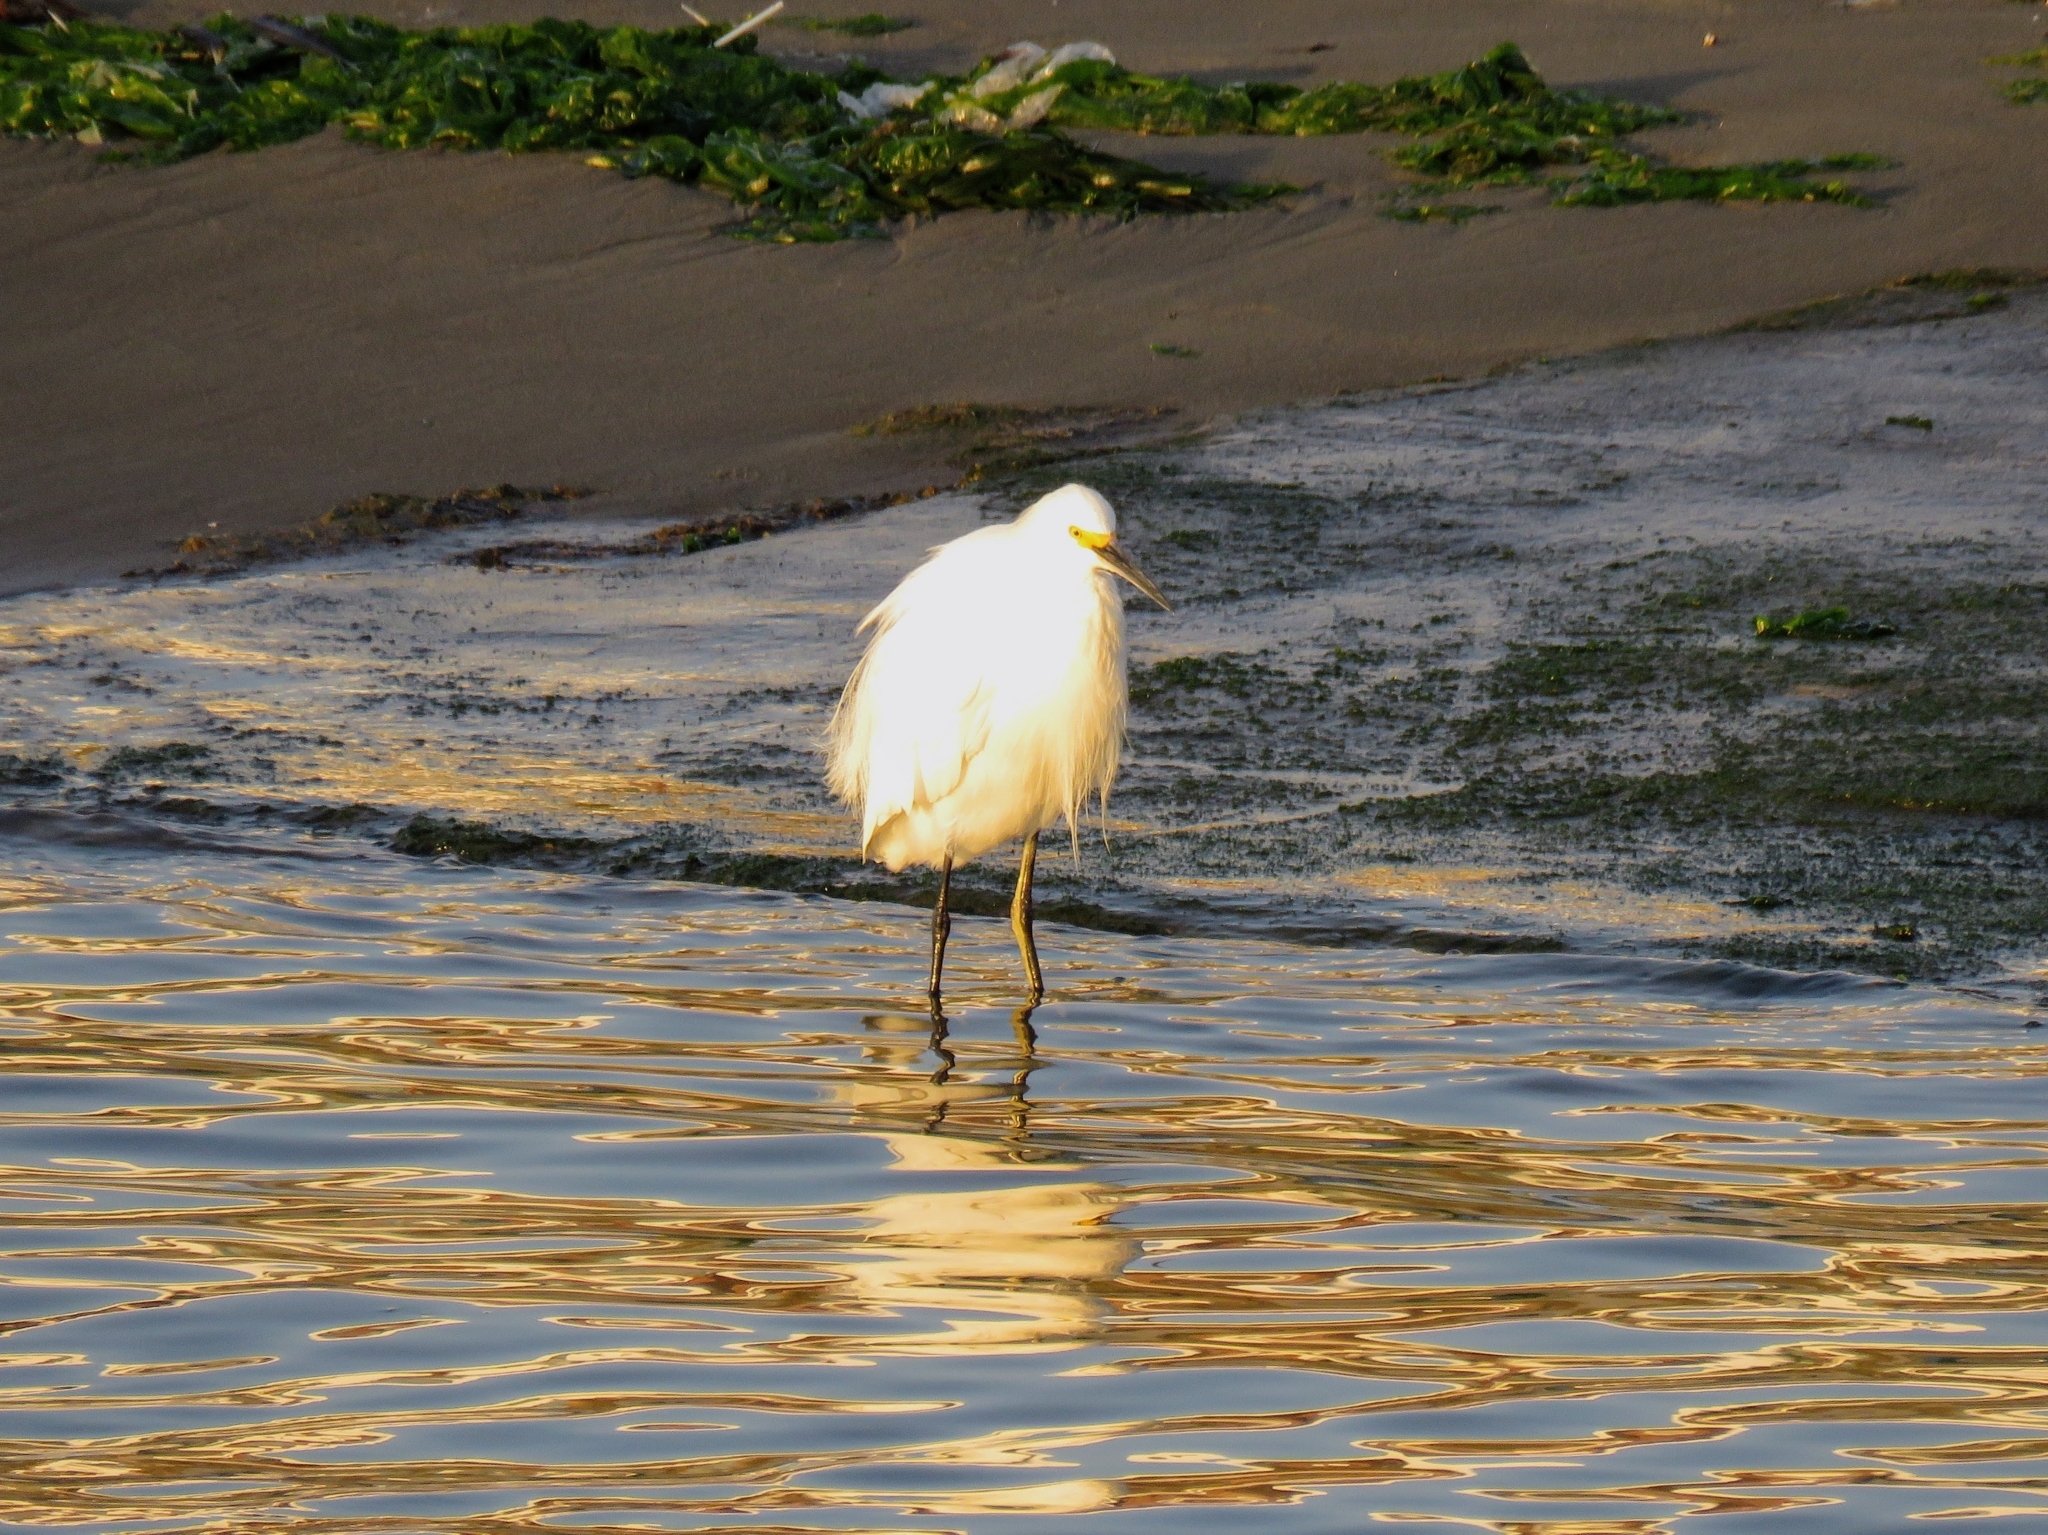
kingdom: Animalia
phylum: Chordata
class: Aves
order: Pelecaniformes
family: Ardeidae
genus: Egretta
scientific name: Egretta thula
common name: Snowy egret
